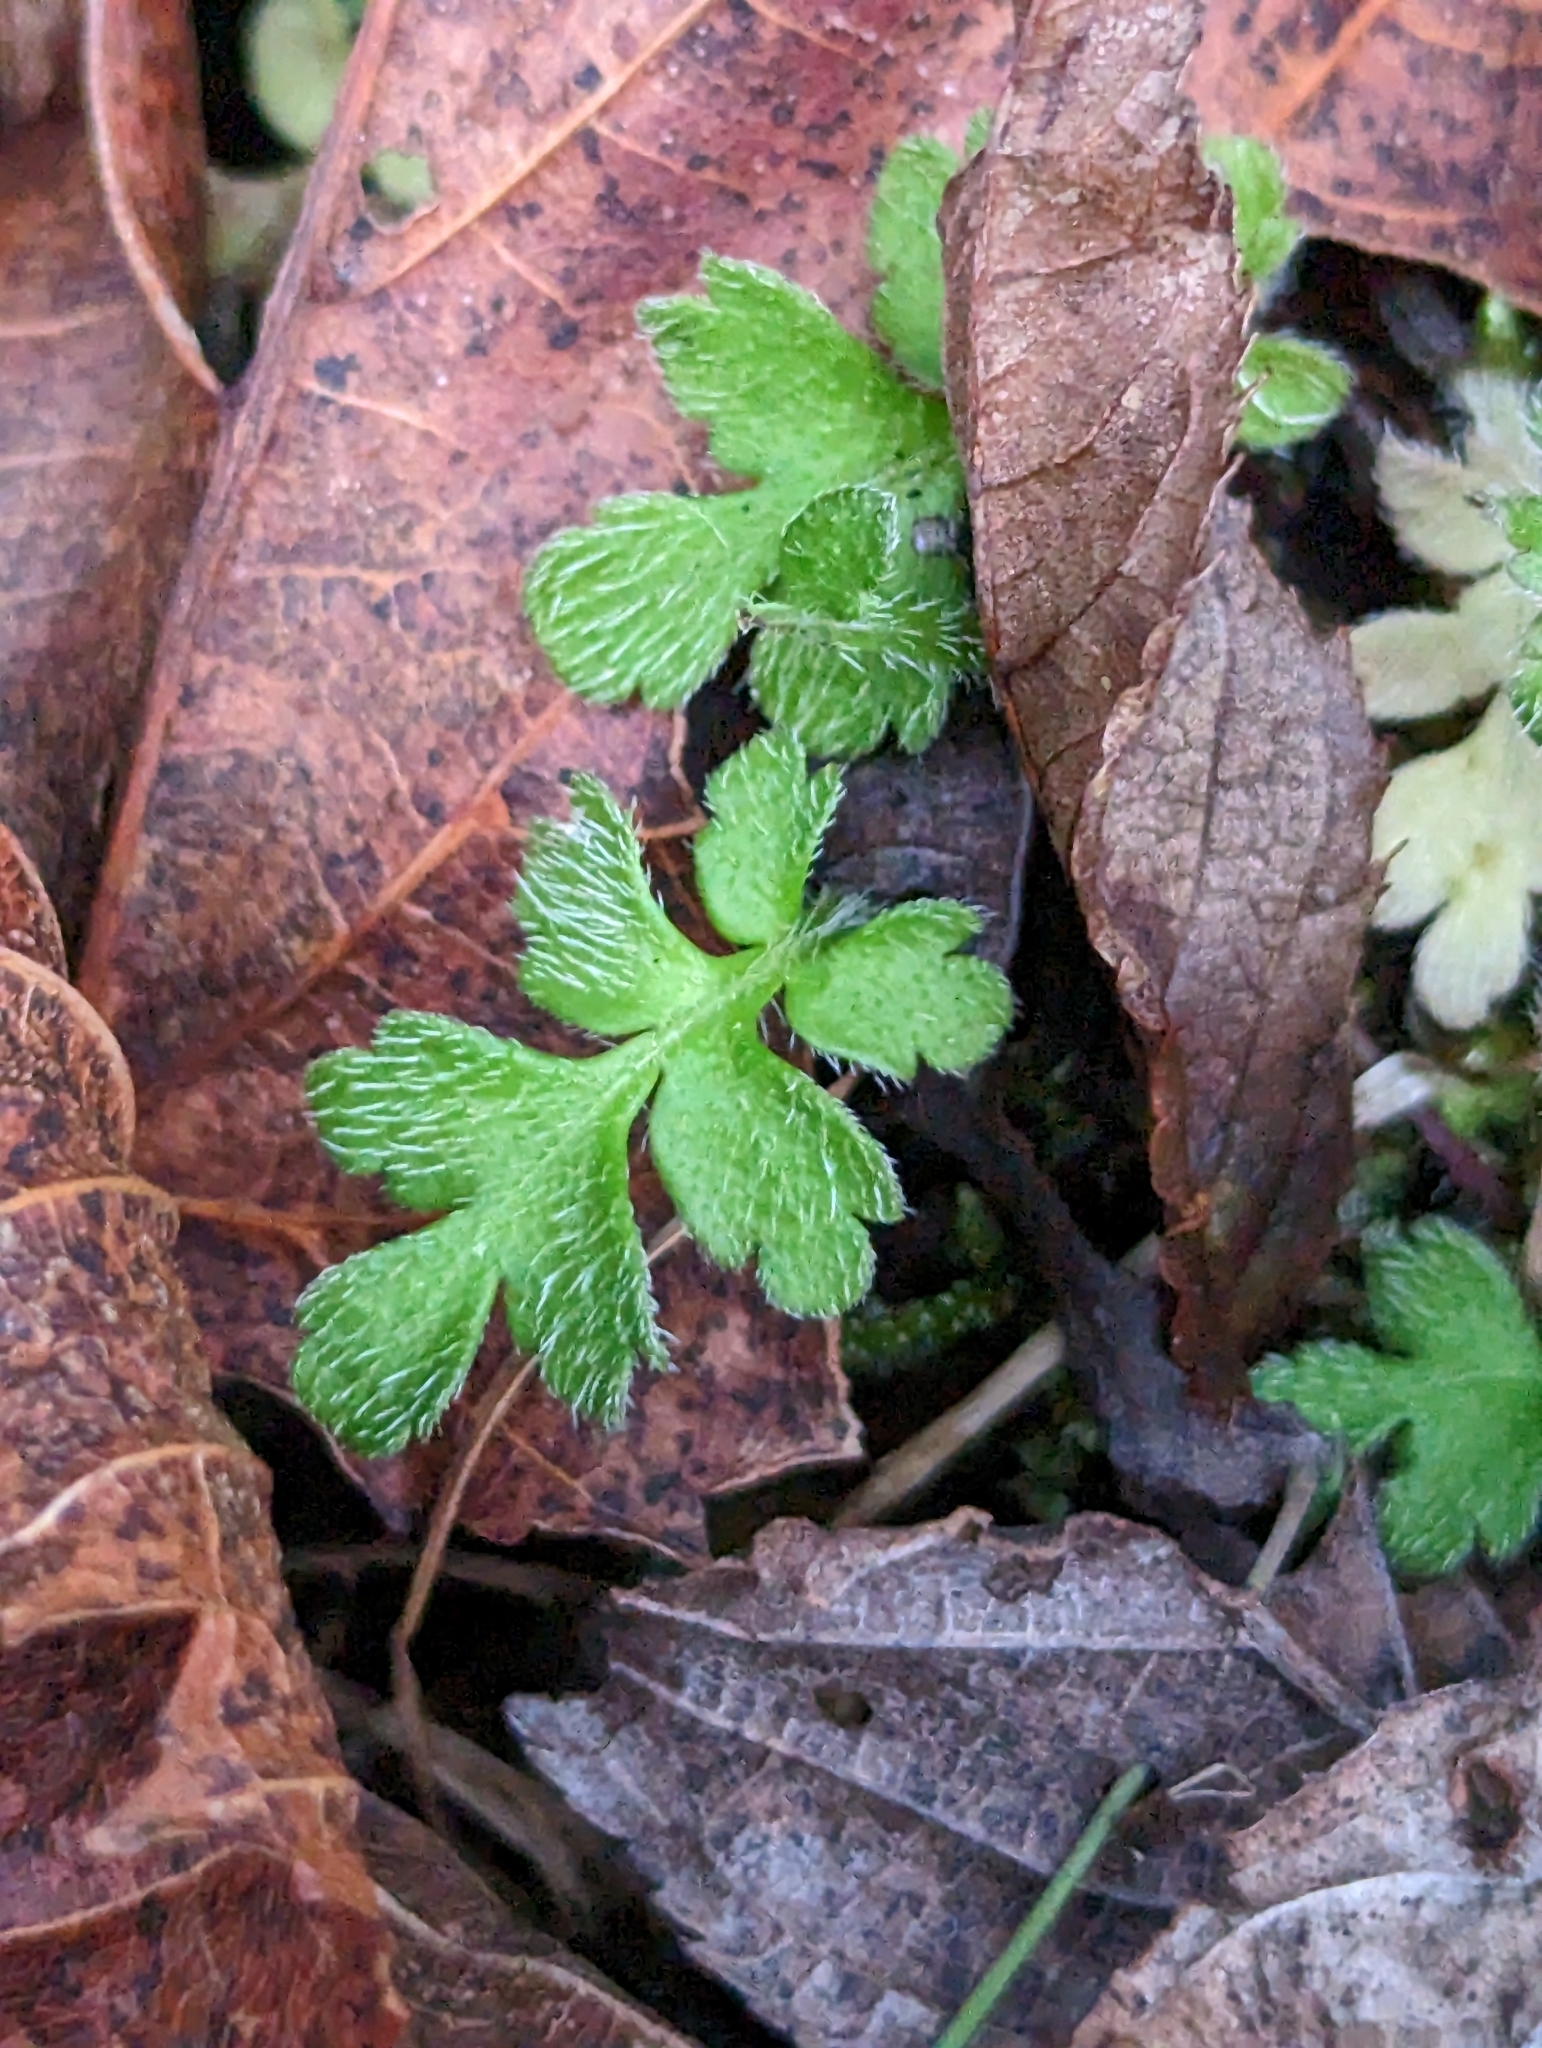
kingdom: Plantae
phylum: Tracheophyta
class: Magnoliopsida
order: Lamiales
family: Plantaginaceae
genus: Ellisiophyllum
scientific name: Ellisiophyllum pinnatum
